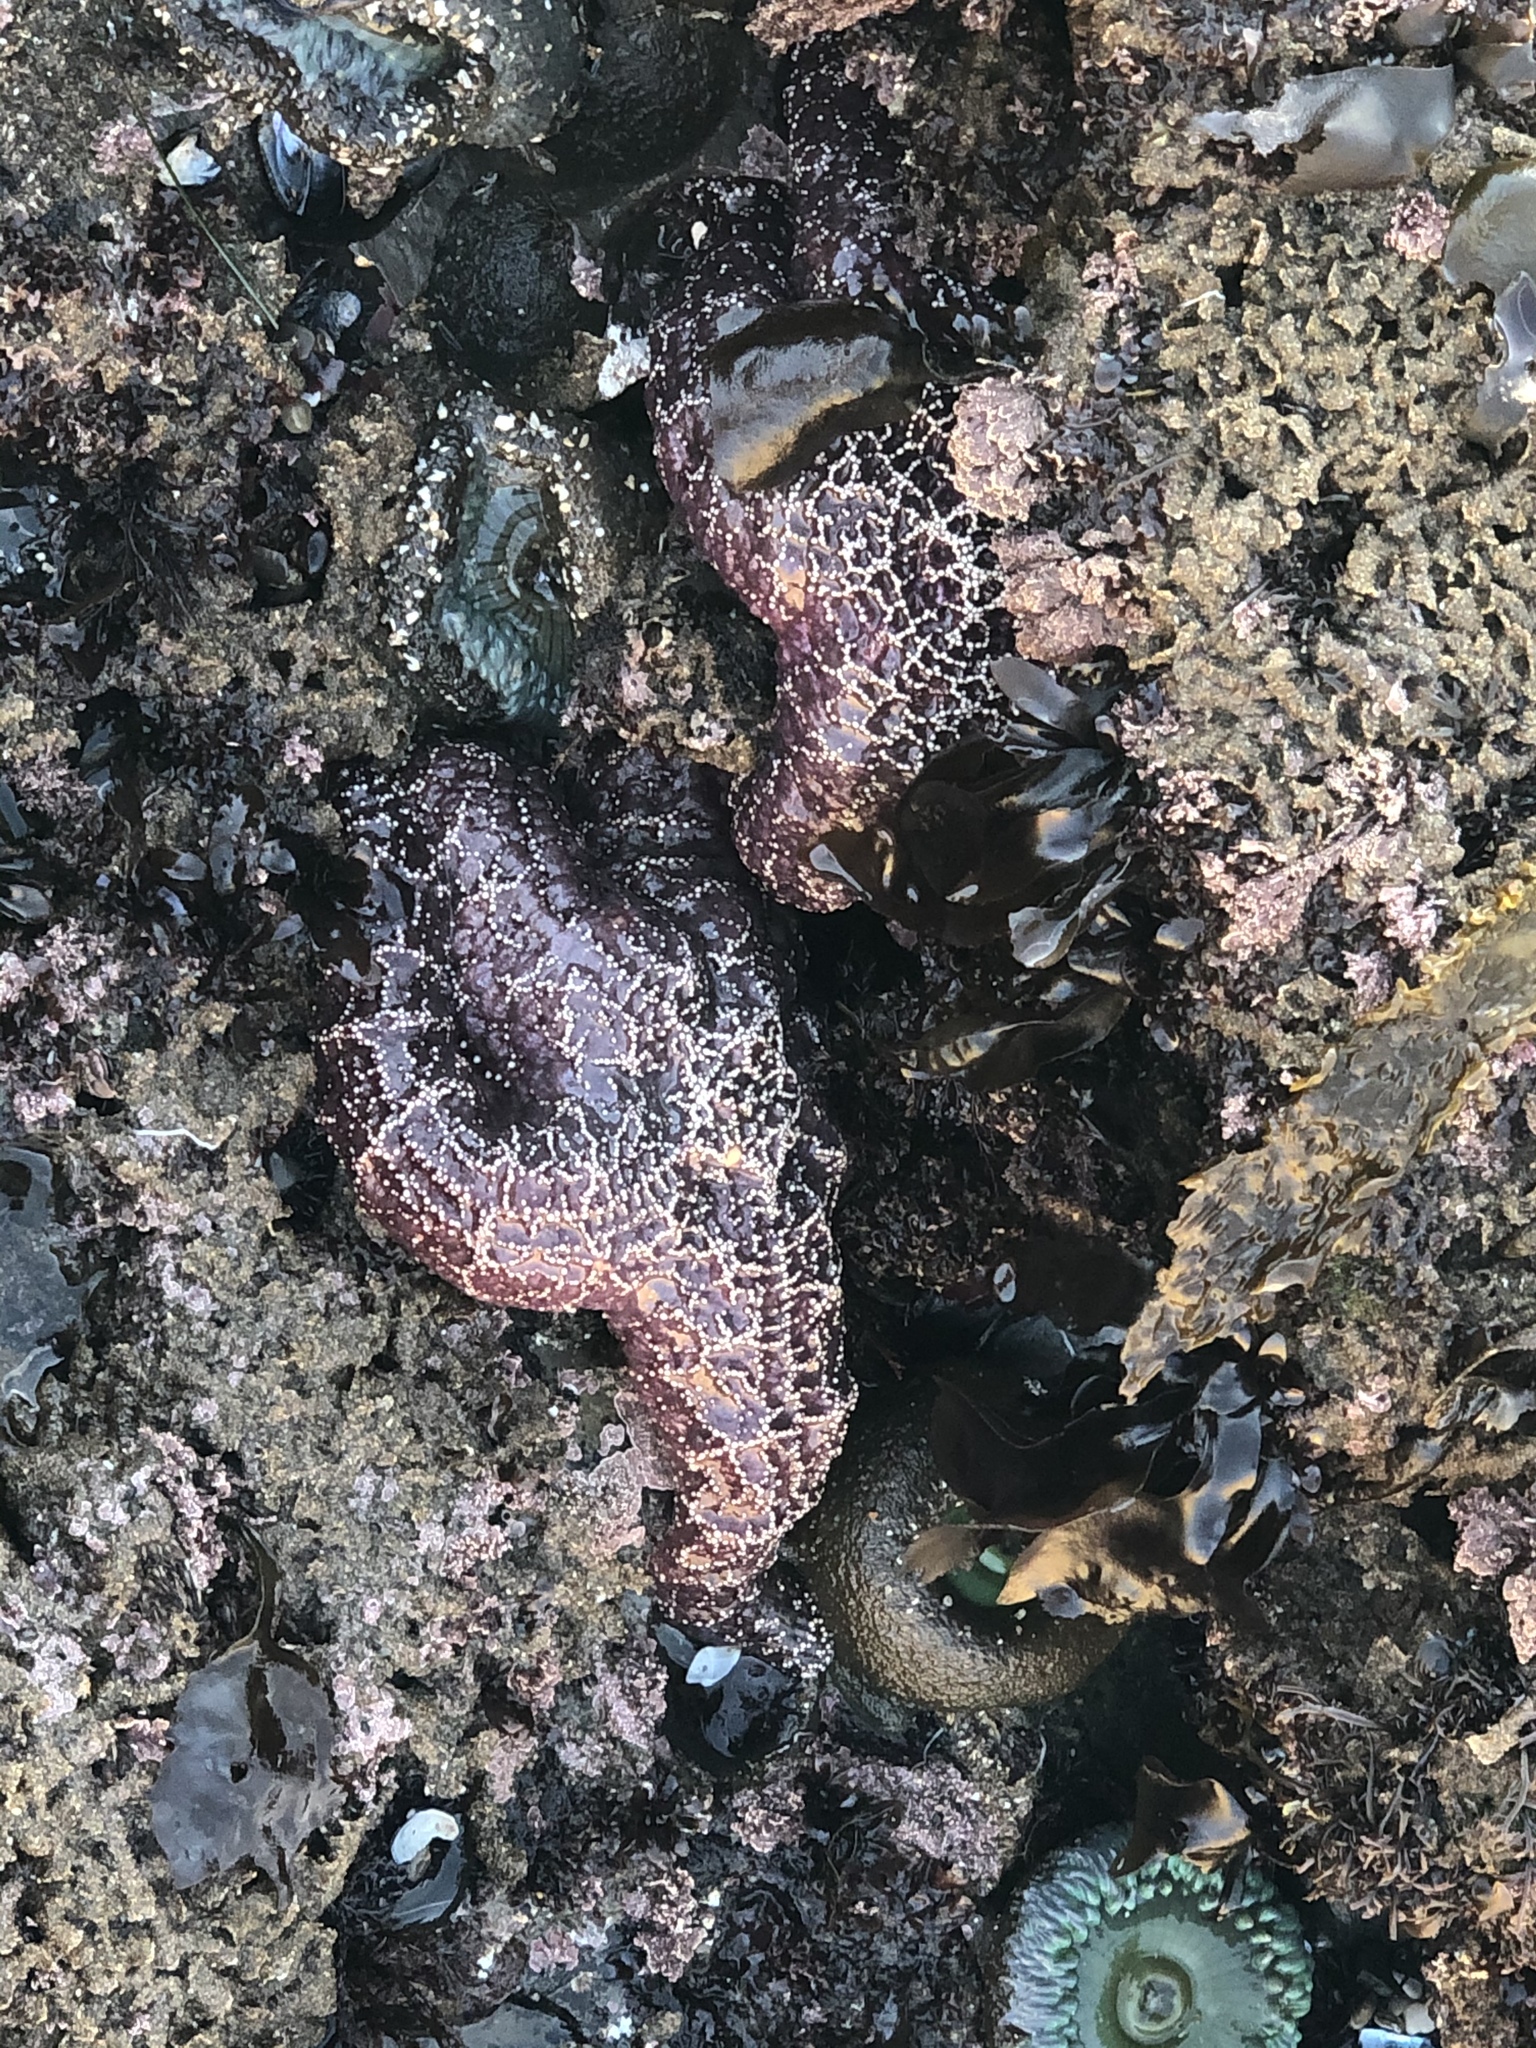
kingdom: Animalia
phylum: Echinodermata
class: Asteroidea
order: Forcipulatida
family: Asteriidae
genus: Pisaster
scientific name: Pisaster ochraceus
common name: Ochre stars
